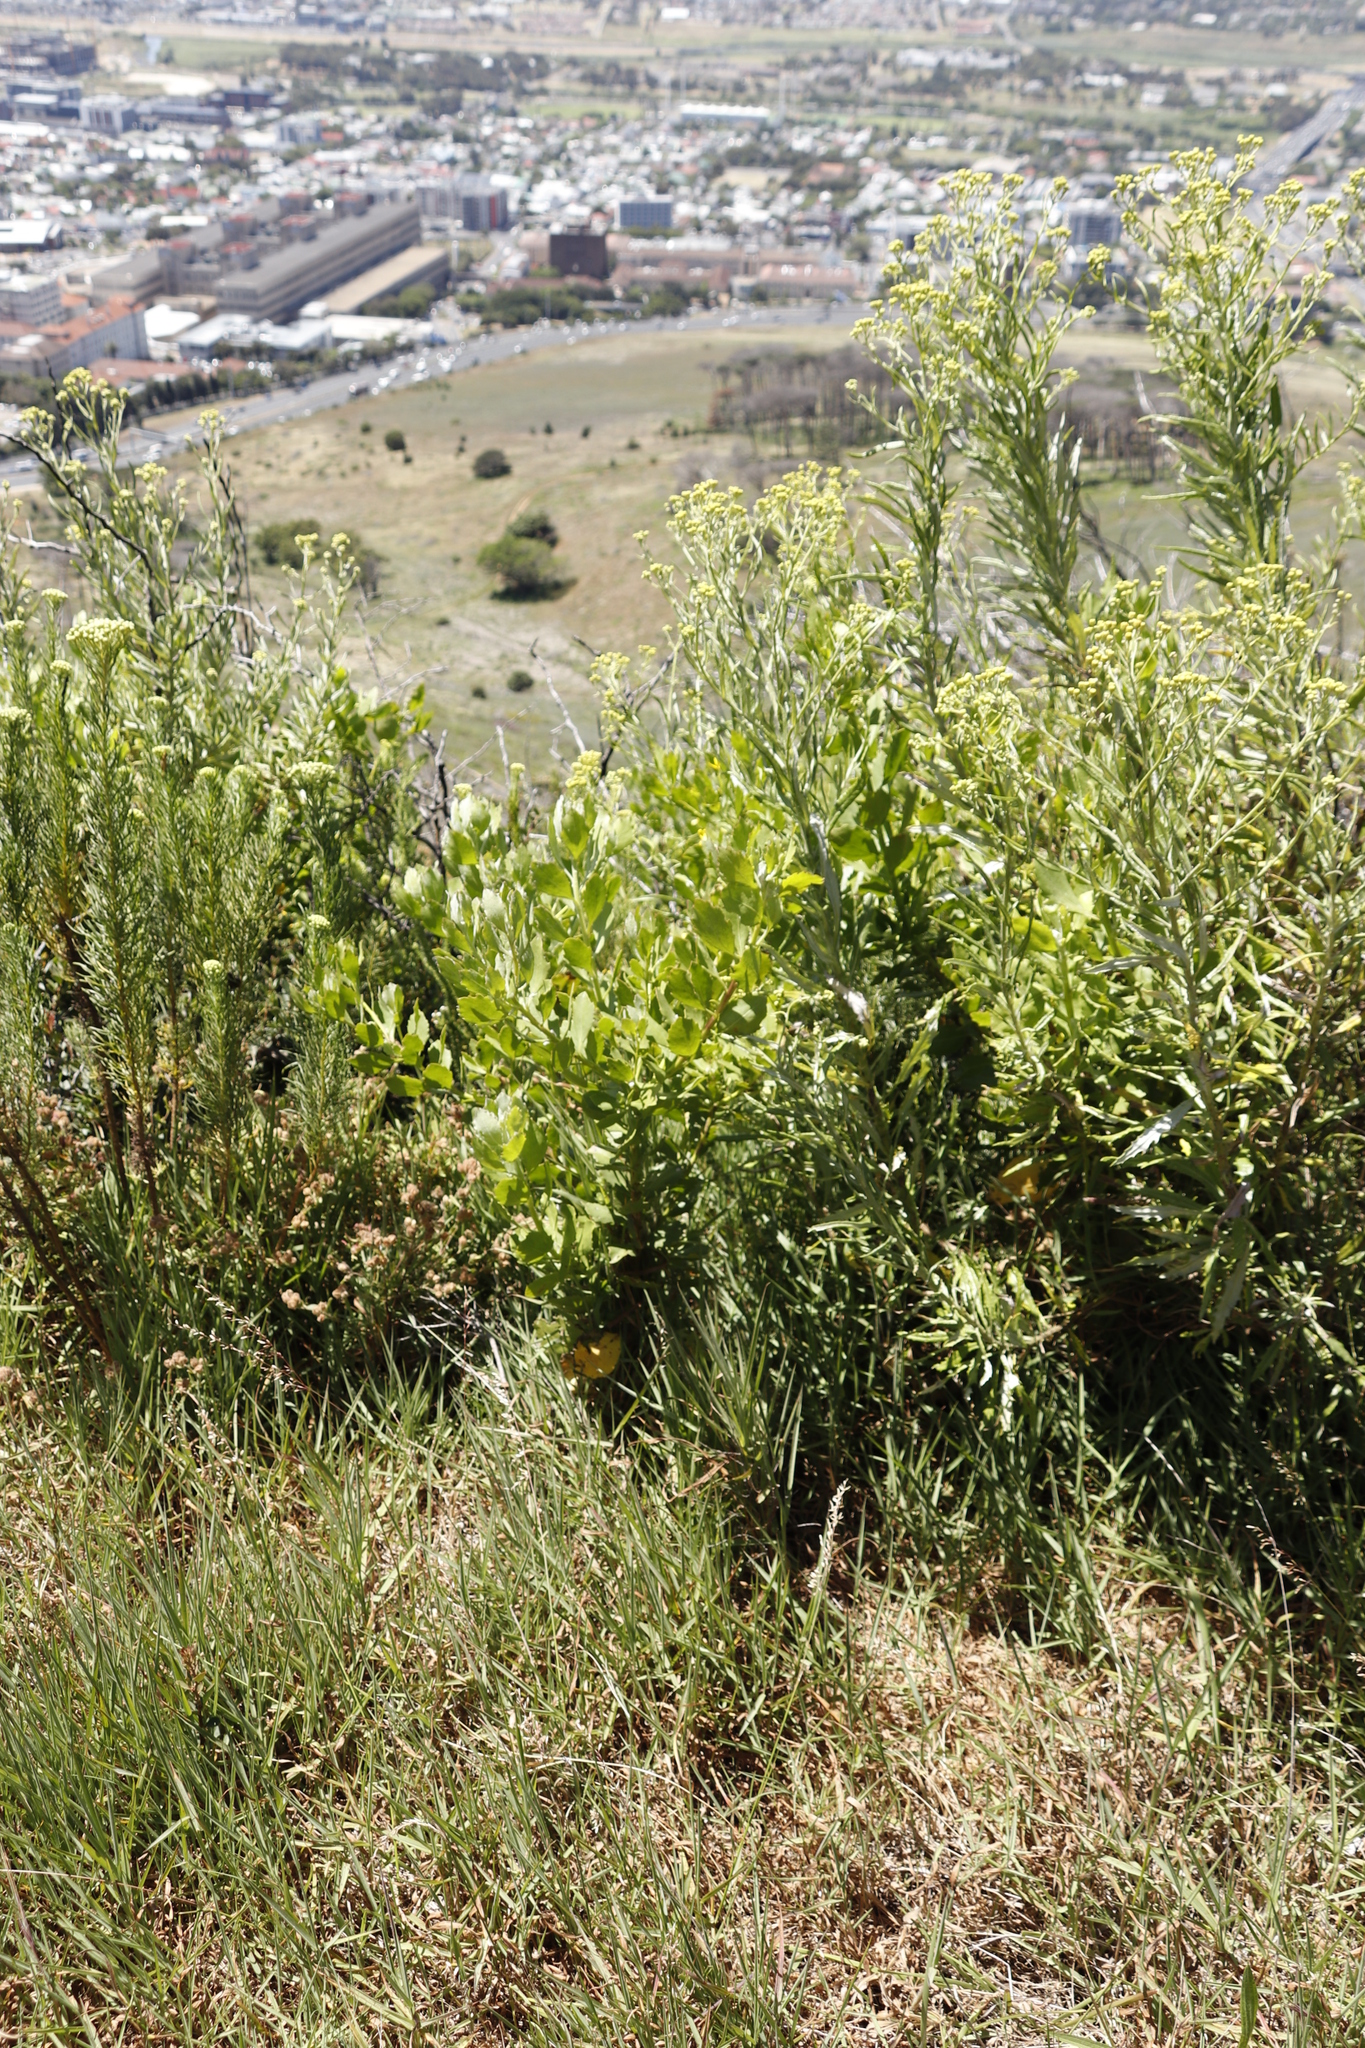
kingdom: Plantae
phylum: Tracheophyta
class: Magnoliopsida
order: Asterales
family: Asteraceae
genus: Osteospermum
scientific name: Osteospermum moniliferum
